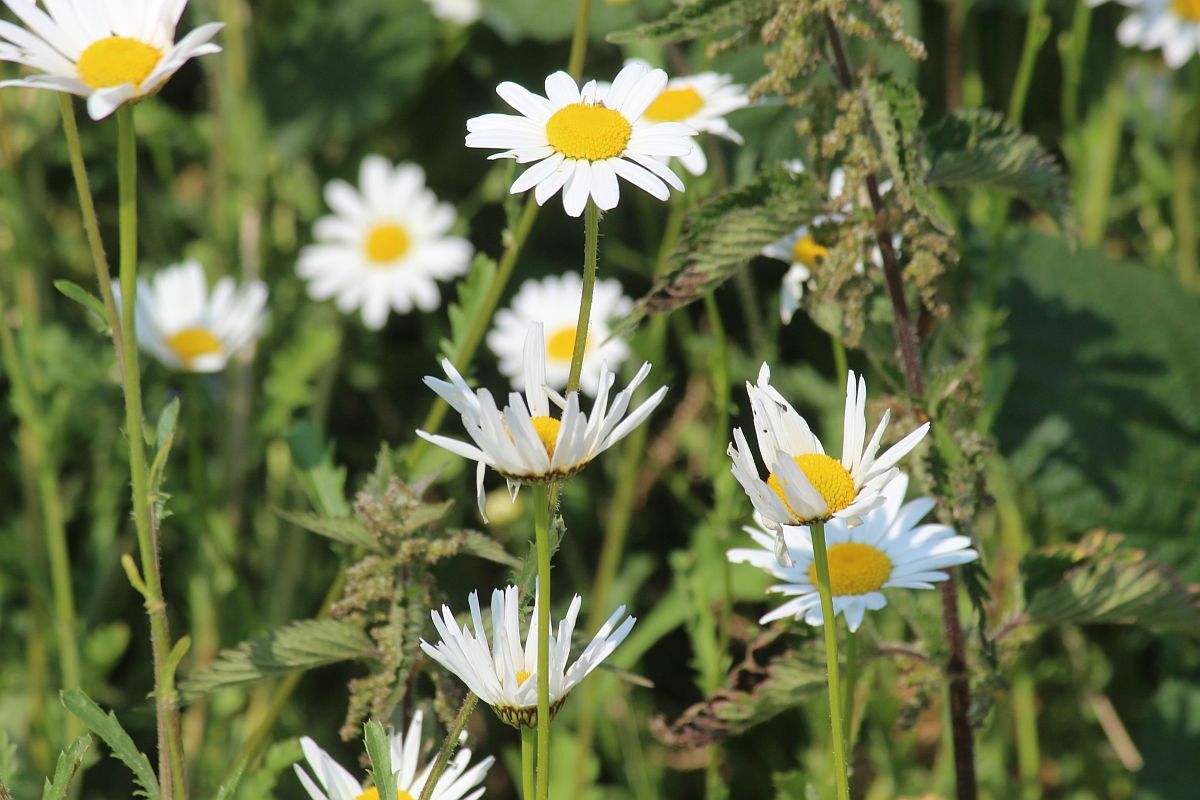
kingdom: Plantae
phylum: Tracheophyta
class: Magnoliopsida
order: Asterales
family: Asteraceae
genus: Leucanthemum
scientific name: Leucanthemum vulgare
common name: Oxeye daisy
